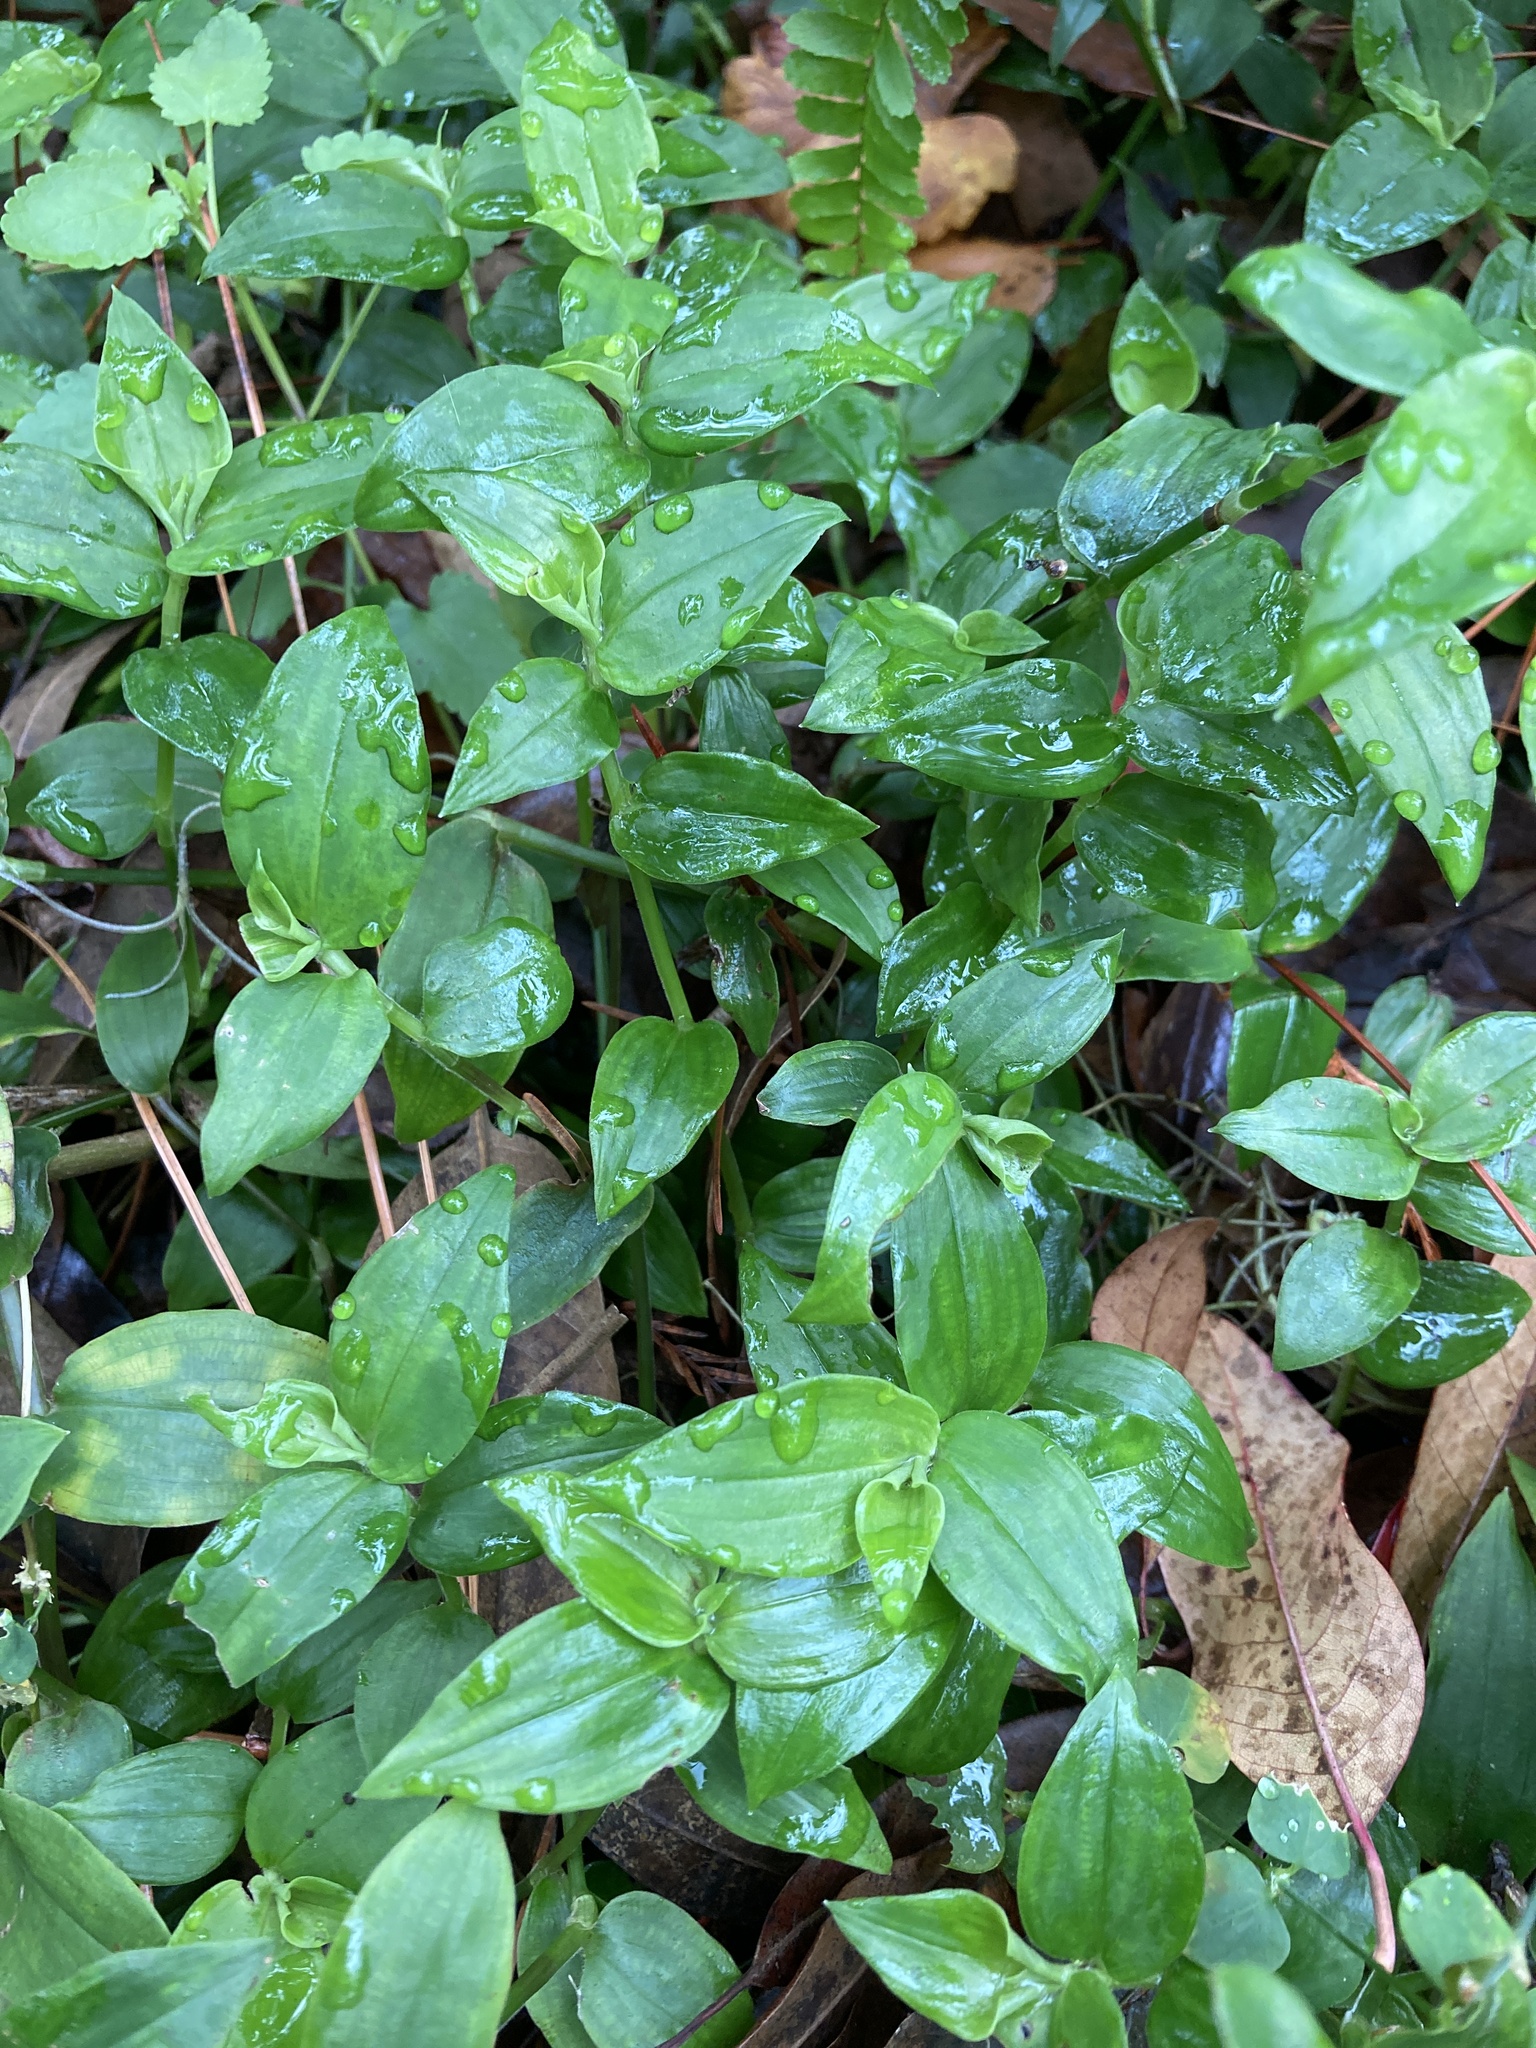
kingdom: Plantae
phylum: Tracheophyta
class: Liliopsida
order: Commelinales
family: Commelinaceae
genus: Tradescantia
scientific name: Tradescantia fluminensis
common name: Wandering-jew
